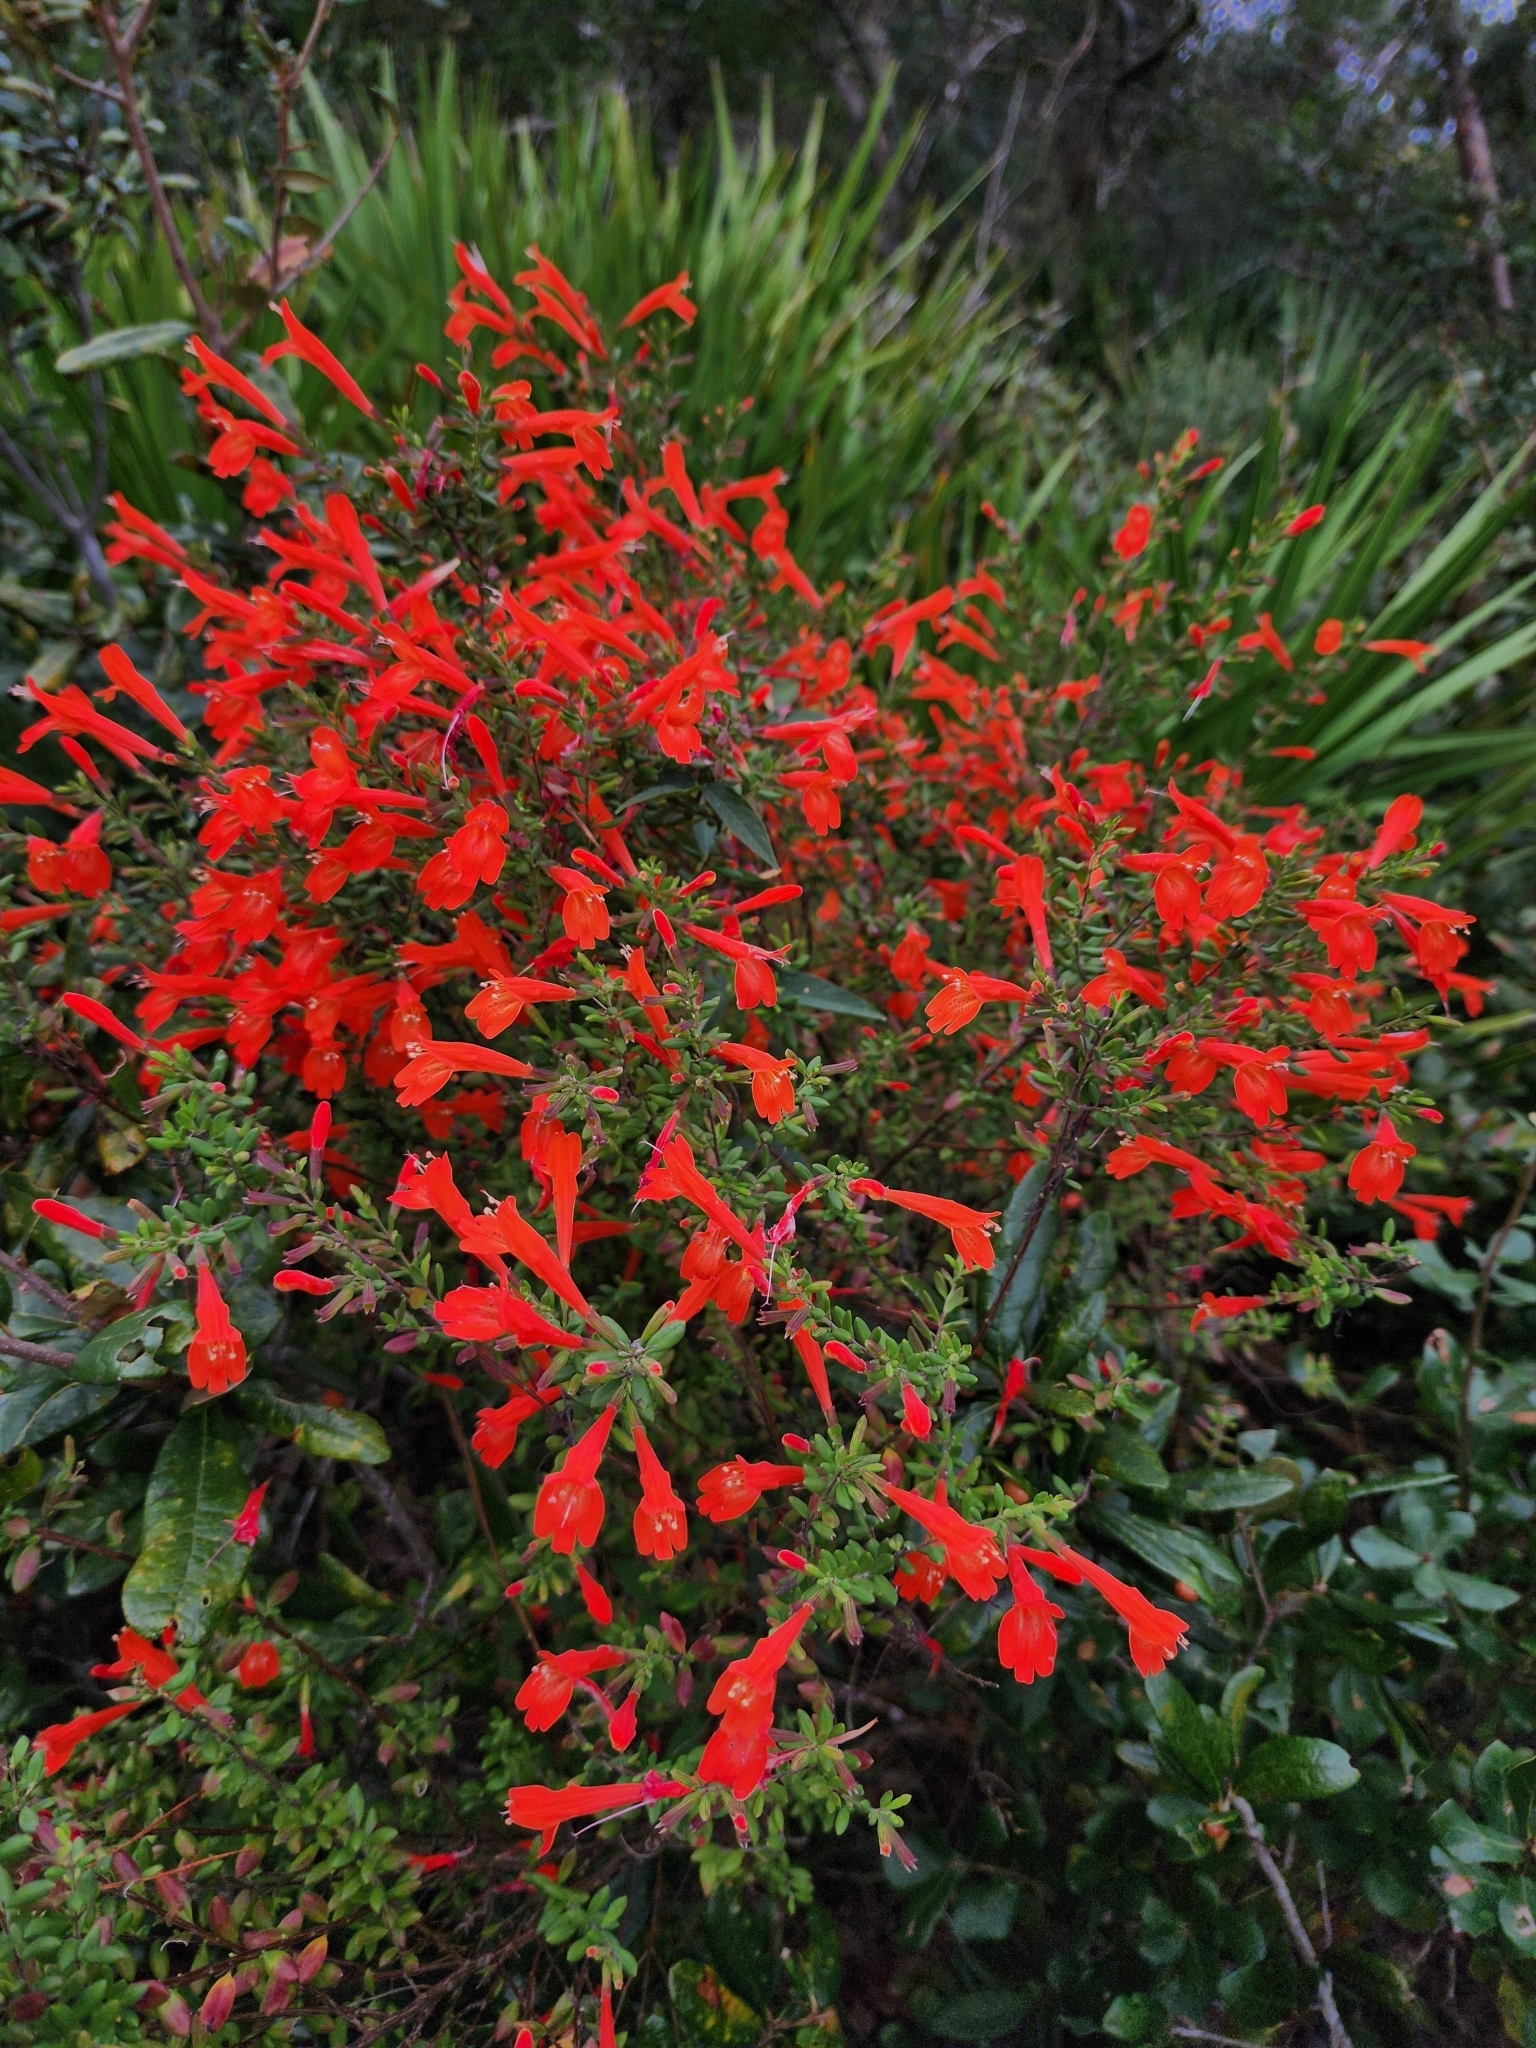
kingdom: Plantae
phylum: Tracheophyta
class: Magnoliopsida
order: Lamiales
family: Lamiaceae
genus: Clinopodium
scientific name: Clinopodium coccineum
